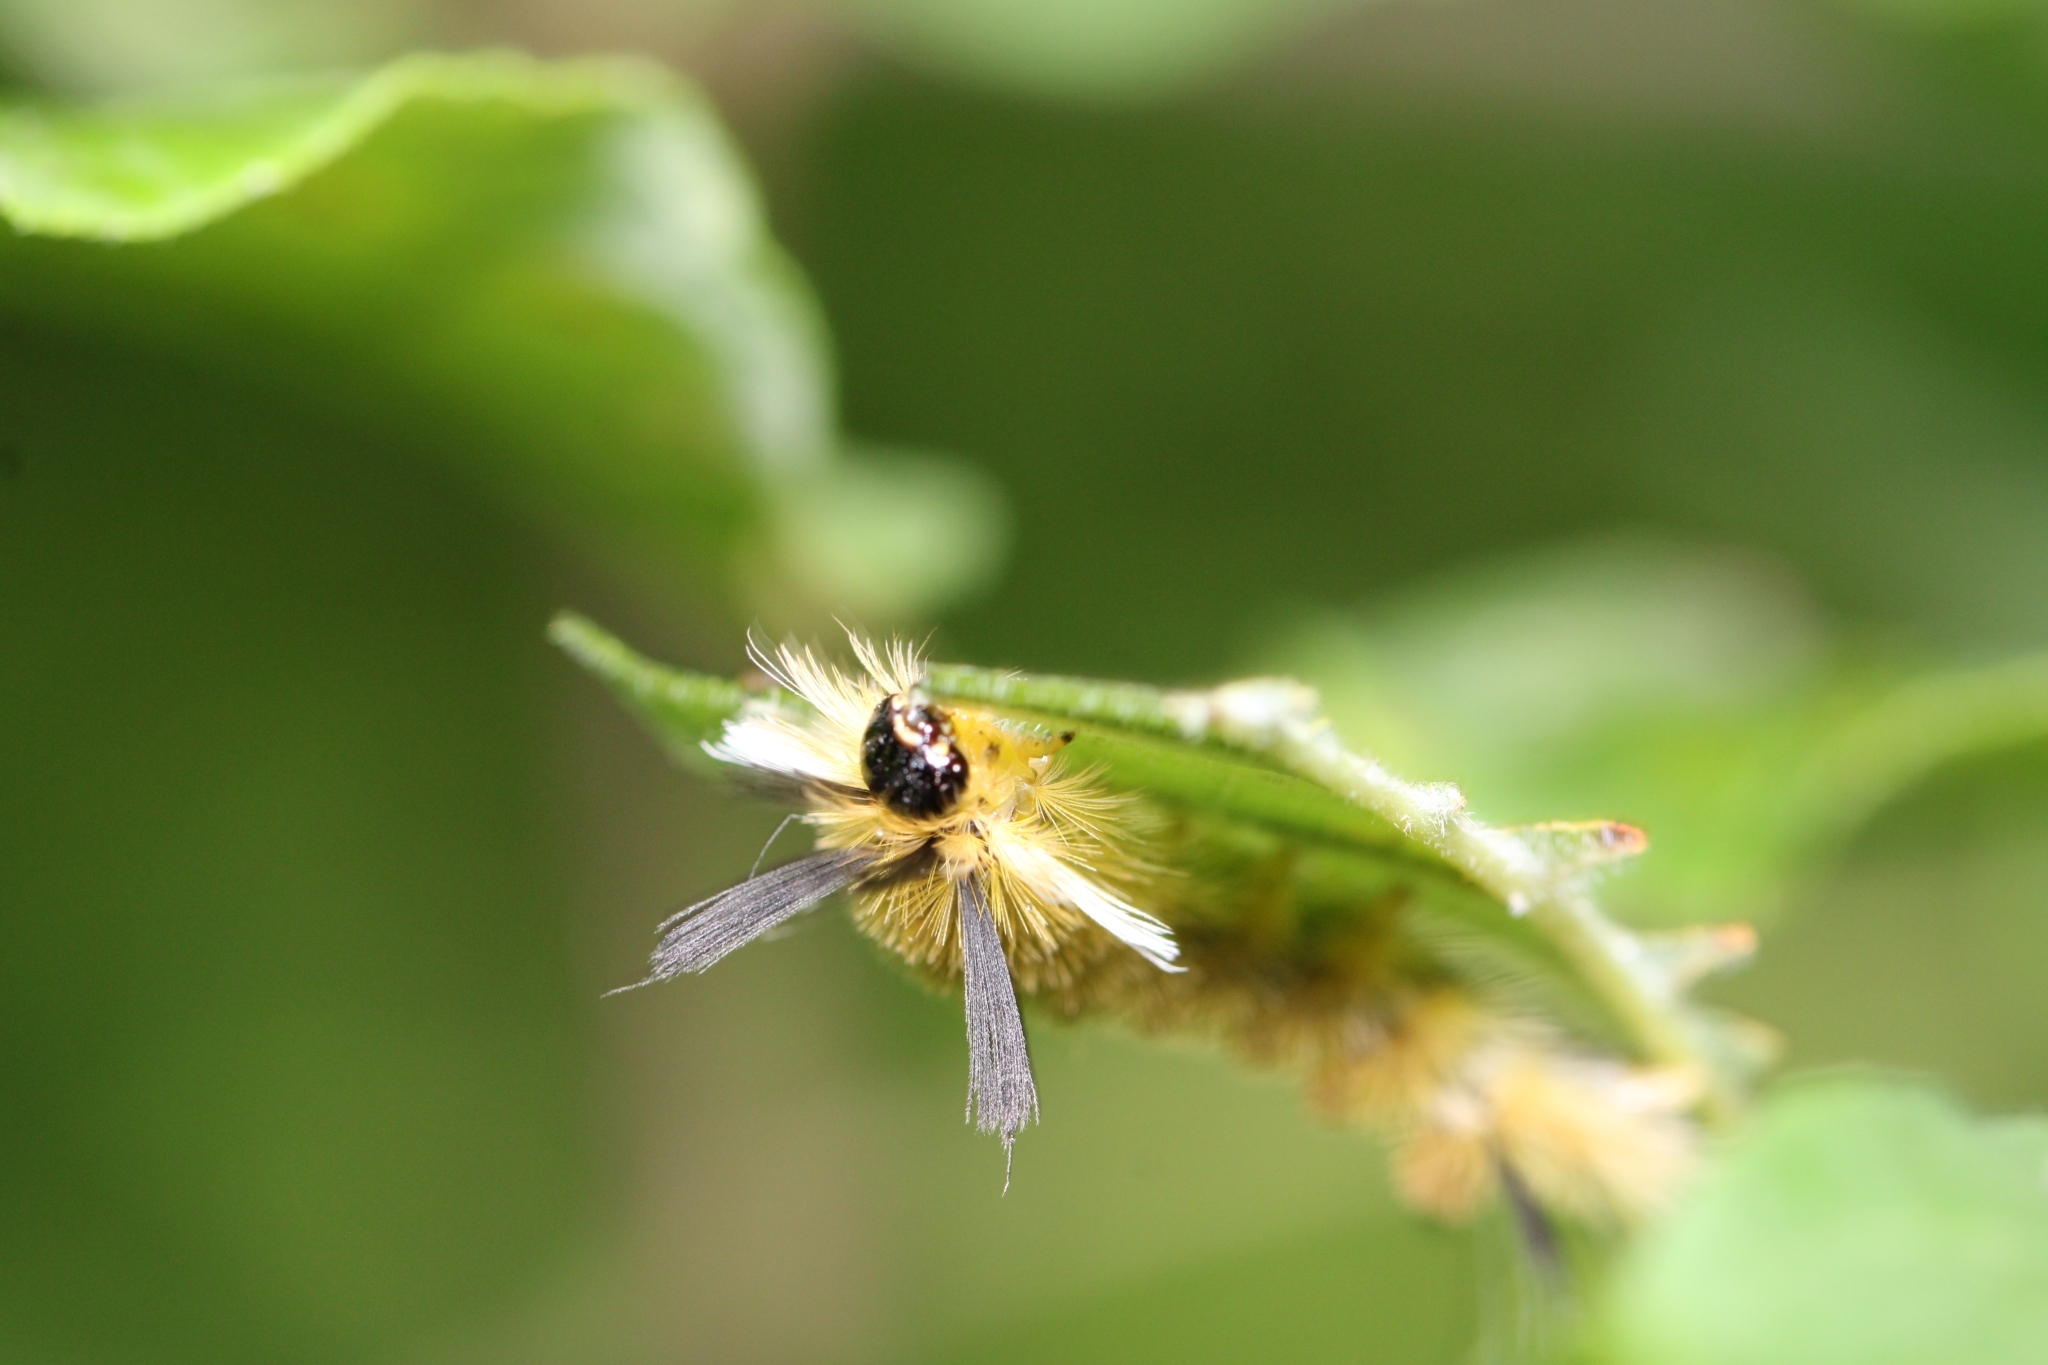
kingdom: Animalia
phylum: Arthropoda
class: Insecta
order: Lepidoptera
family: Erebidae
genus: Halysidota
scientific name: Halysidota tessellaris
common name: Banded tussock moth
